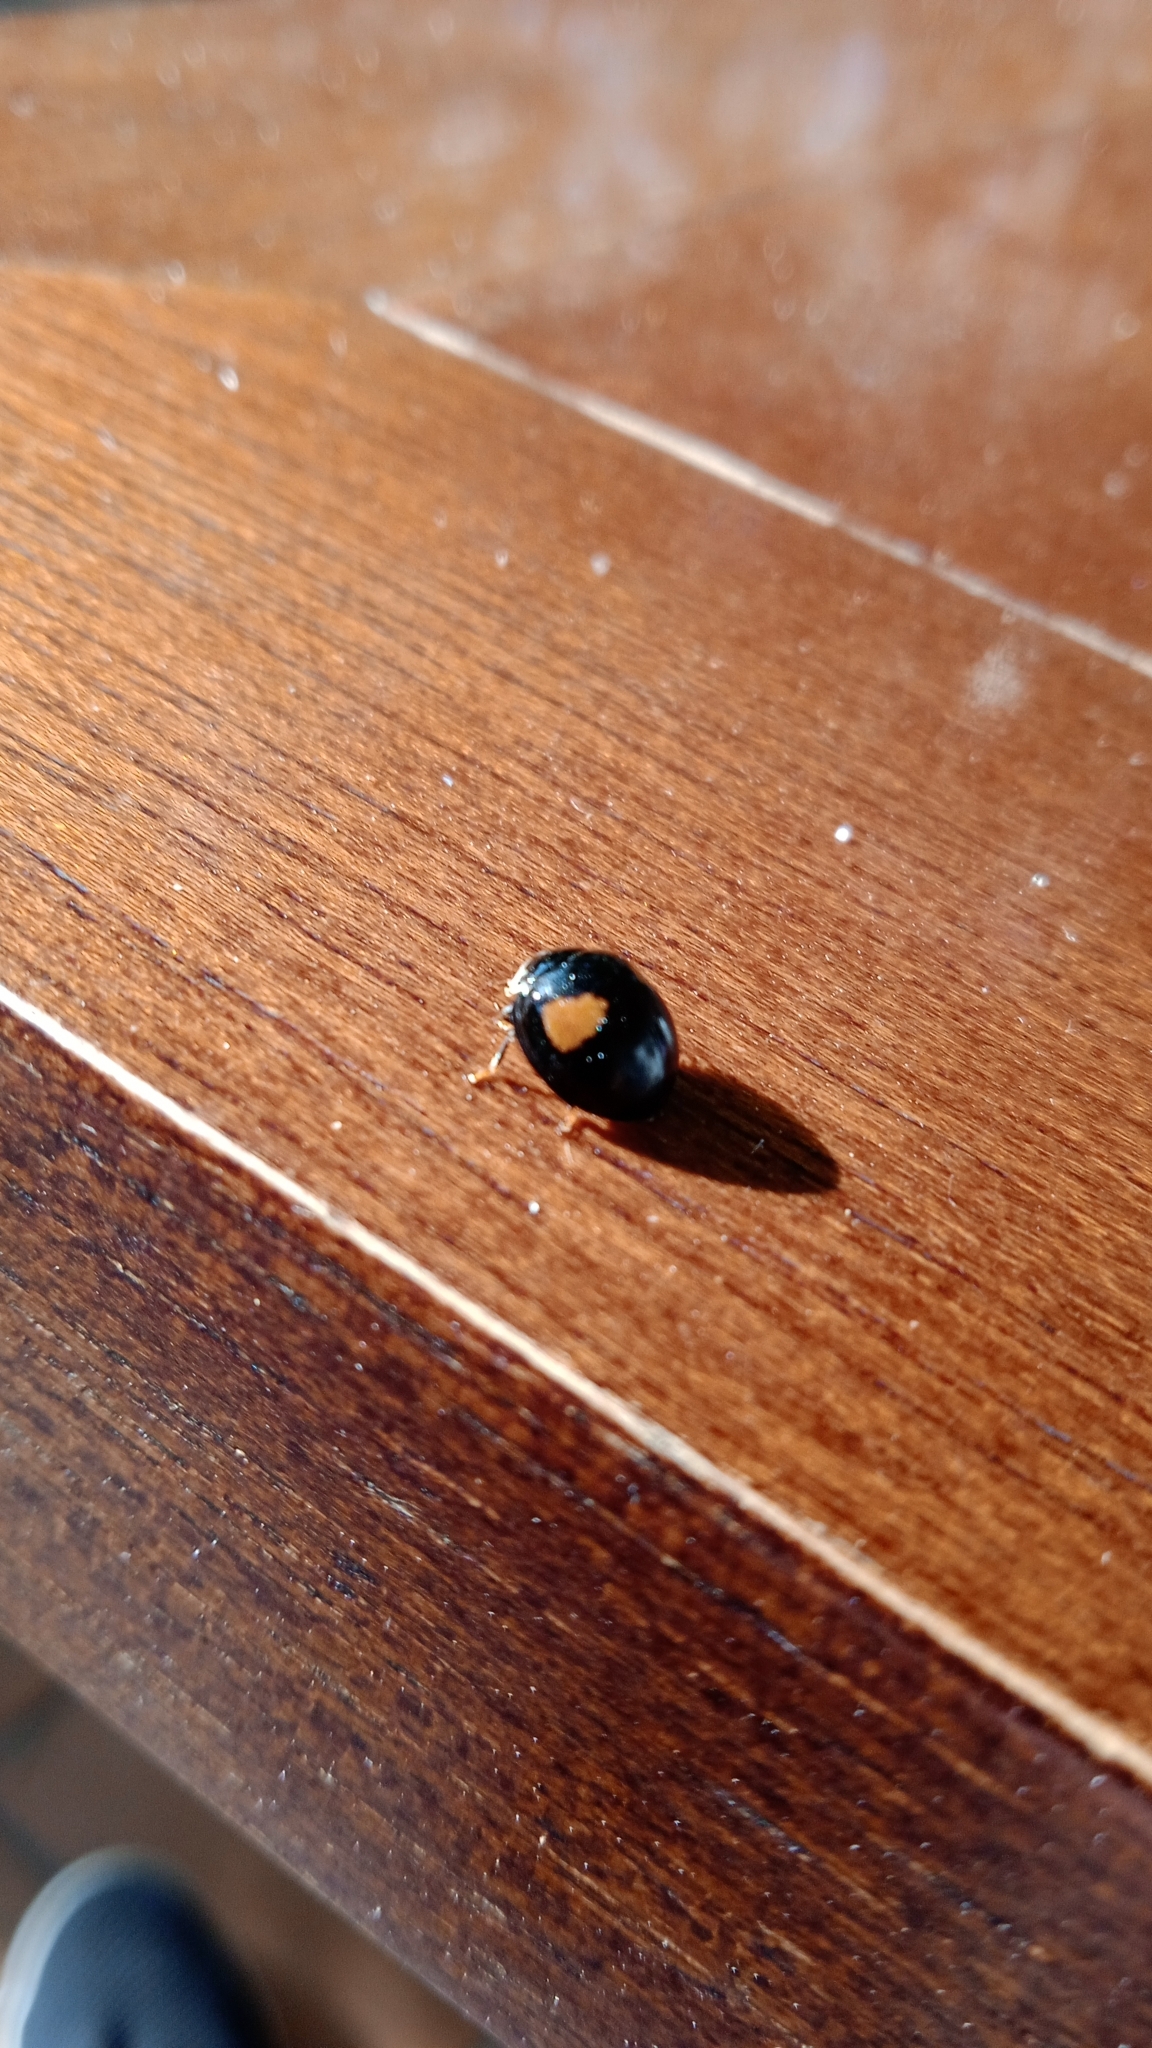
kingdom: Animalia
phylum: Arthropoda
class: Insecta
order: Coleoptera
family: Coccinellidae
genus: Olla
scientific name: Olla v-nigrum
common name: Ashy gray lady beetle
